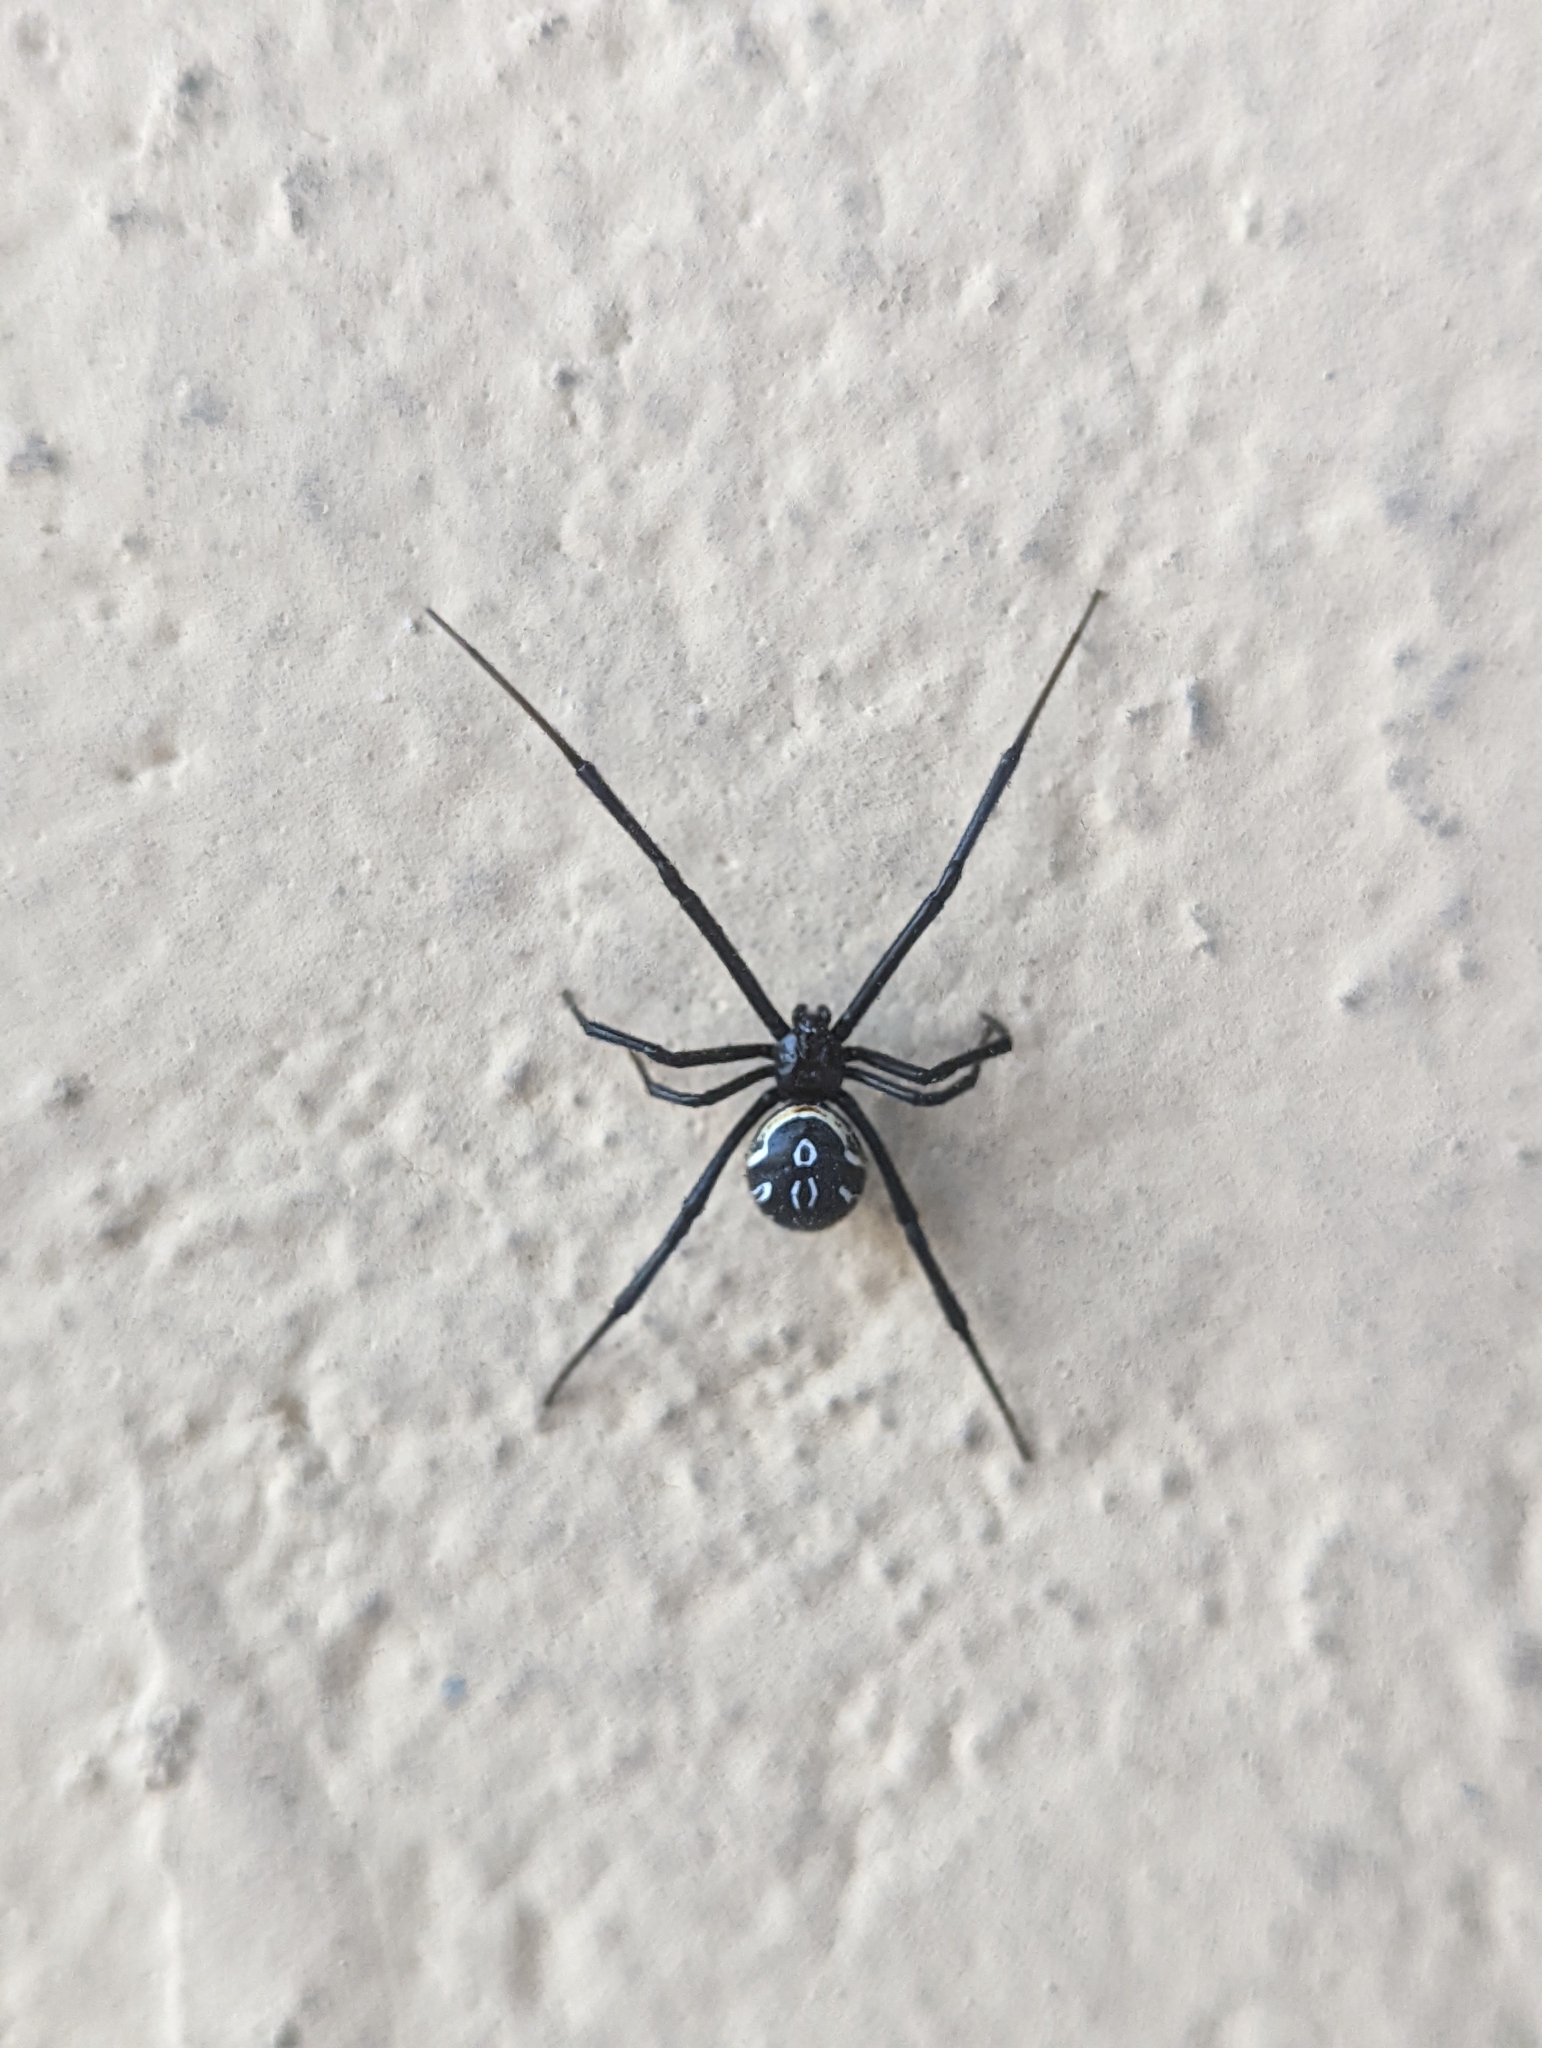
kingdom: Animalia
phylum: Arthropoda
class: Arachnida
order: Araneae
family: Theridiidae
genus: Latrodectus
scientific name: Latrodectus hesperus
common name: Western black widow
